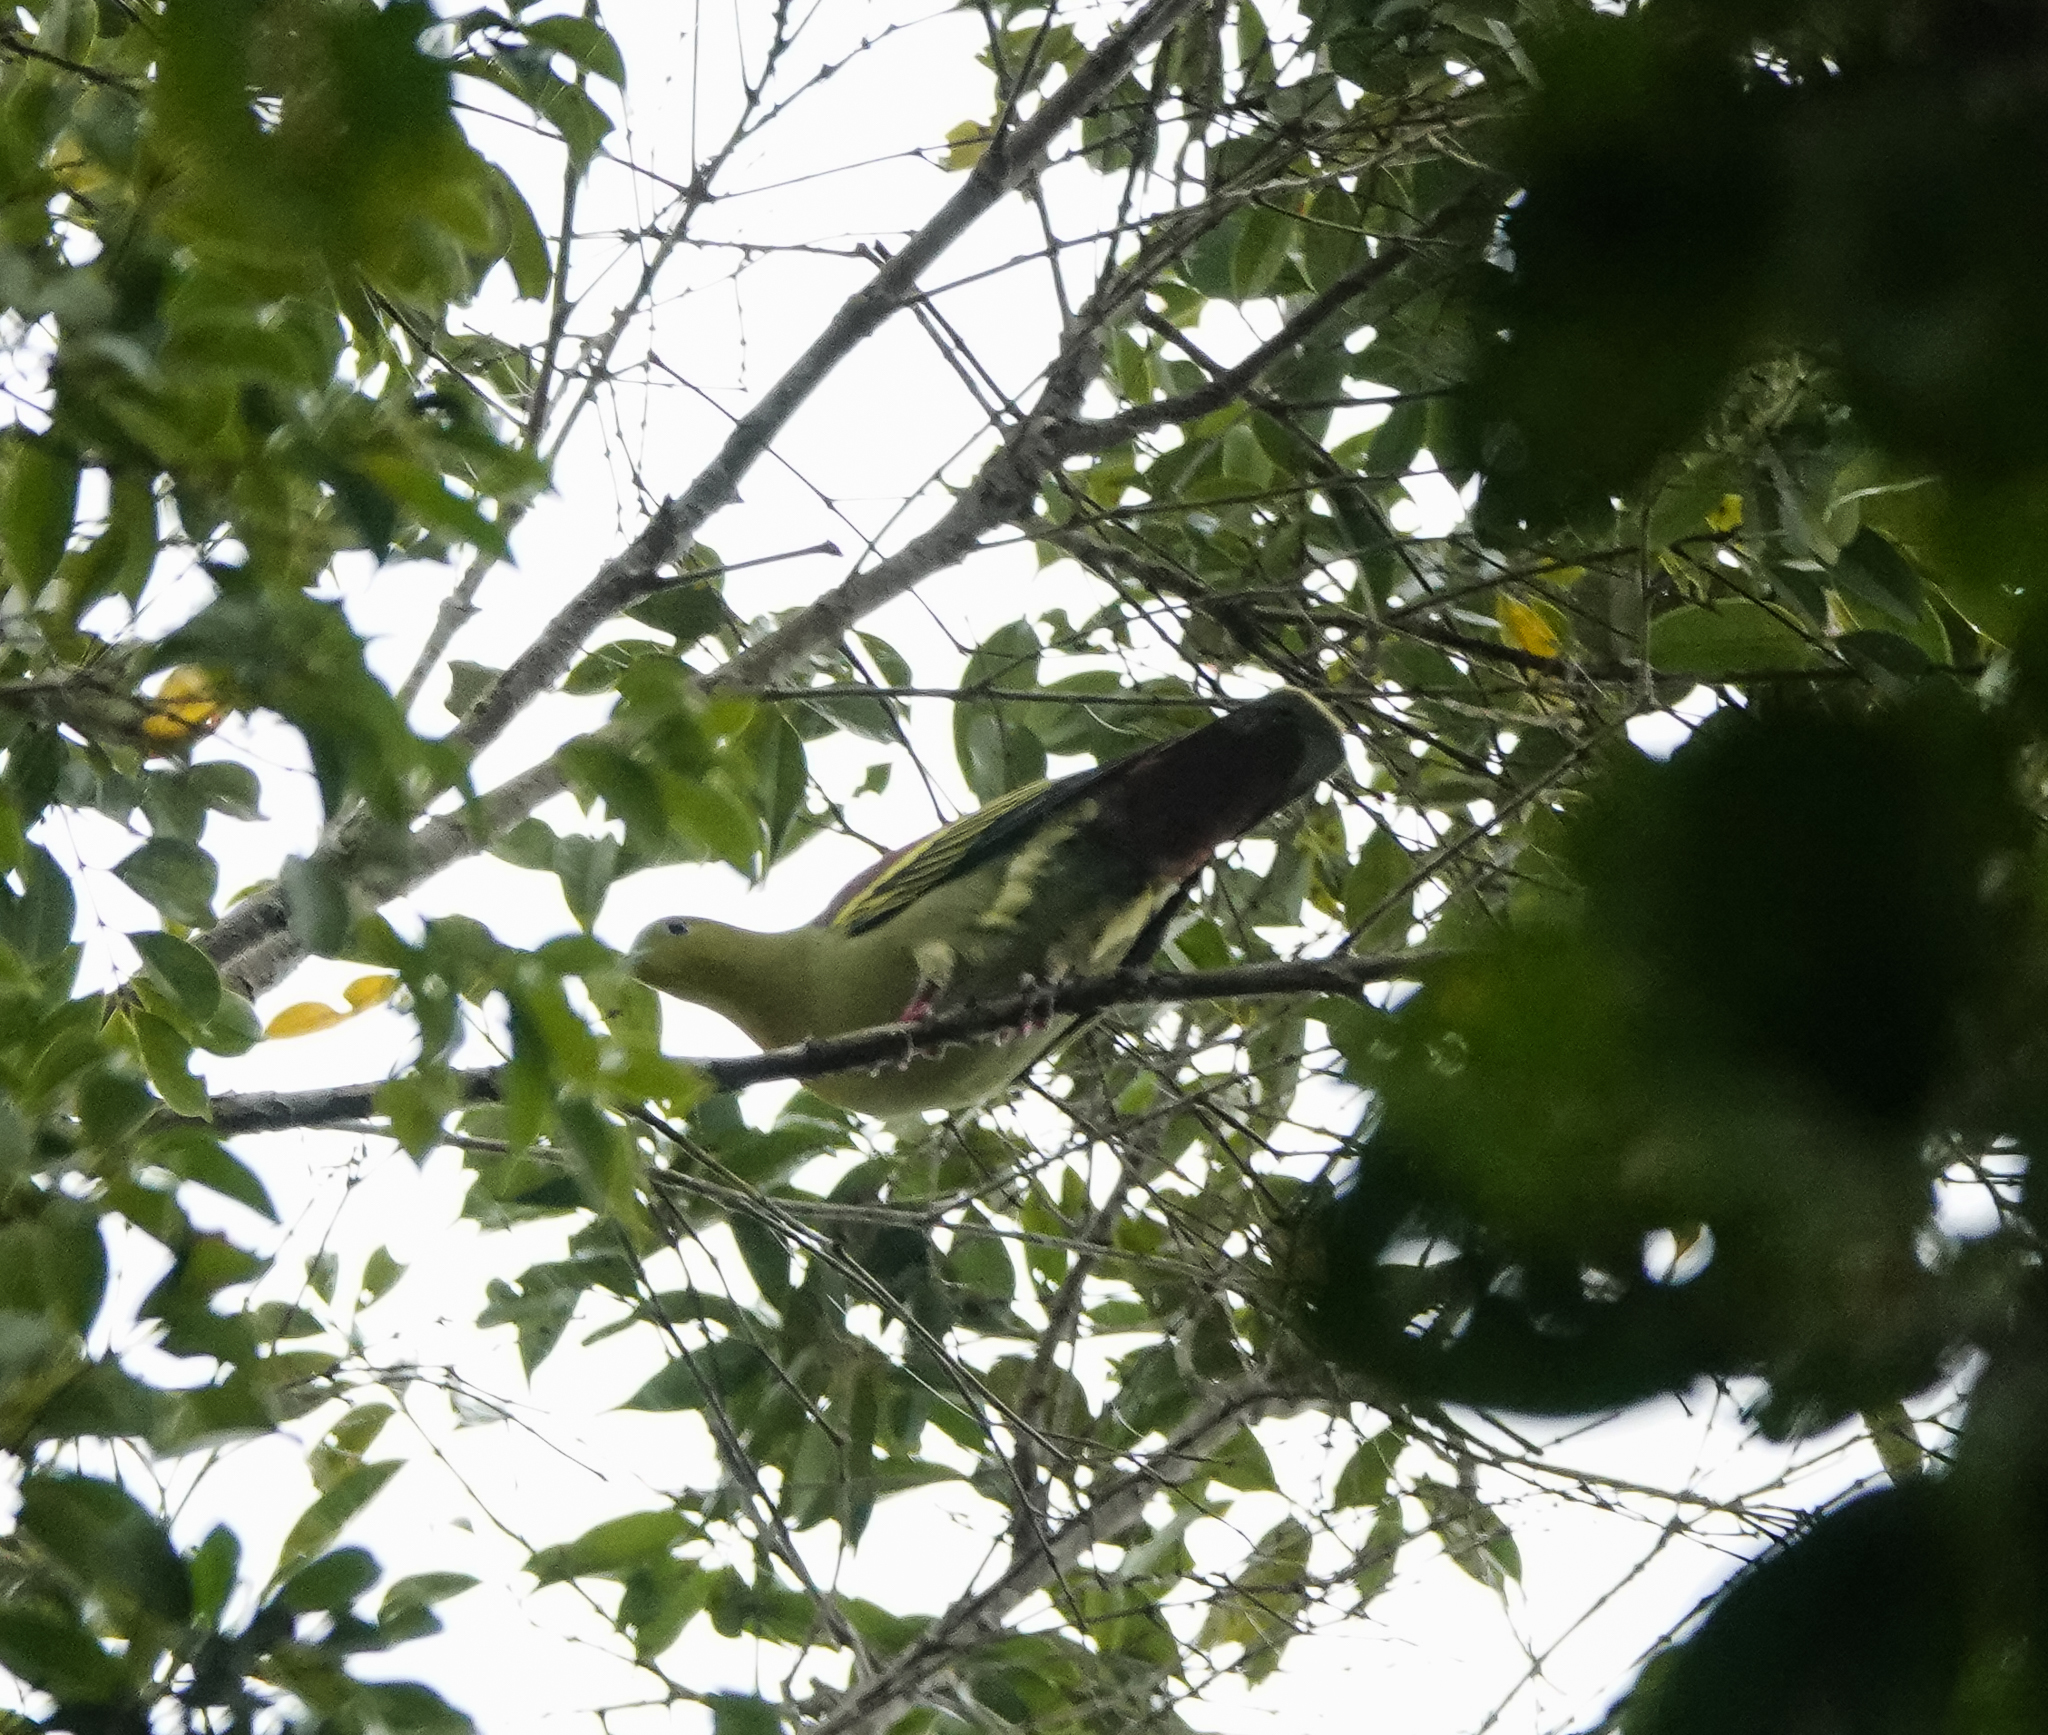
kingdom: Animalia
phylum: Chordata
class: Aves
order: Columbiformes
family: Columbidae
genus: Treron
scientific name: Treron phayrei
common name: Ashy-headed green pigeon
